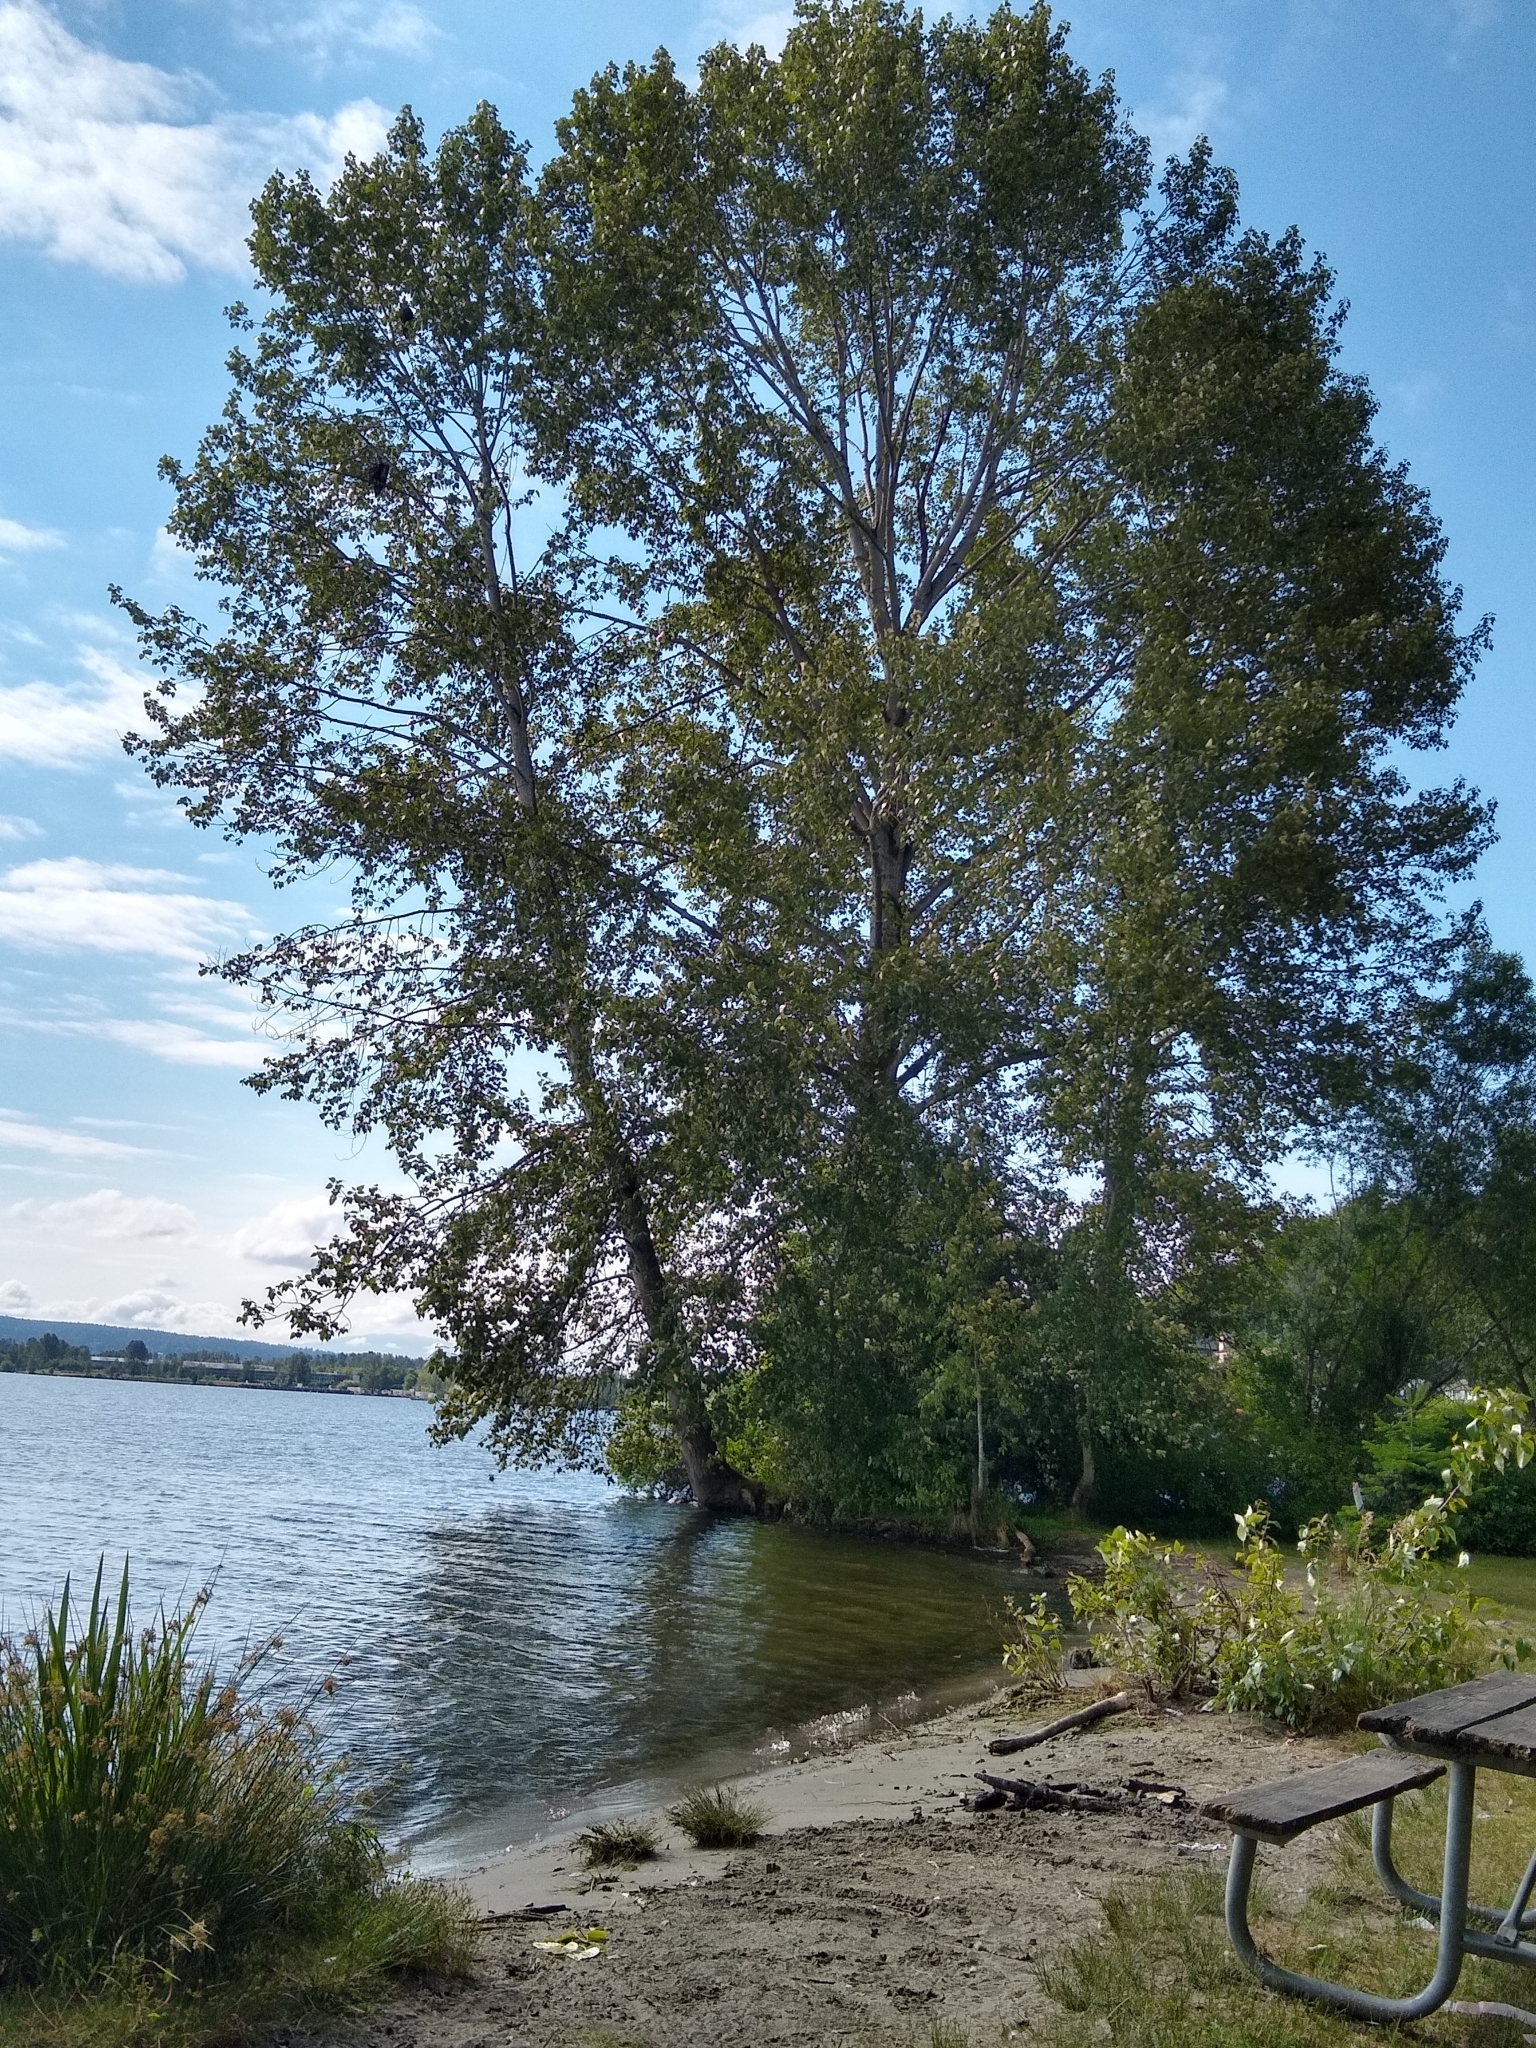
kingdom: Animalia
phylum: Chordata
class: Aves
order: Accipitriformes
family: Accipitridae
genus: Haliaeetus
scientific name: Haliaeetus leucocephalus
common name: Bald eagle
